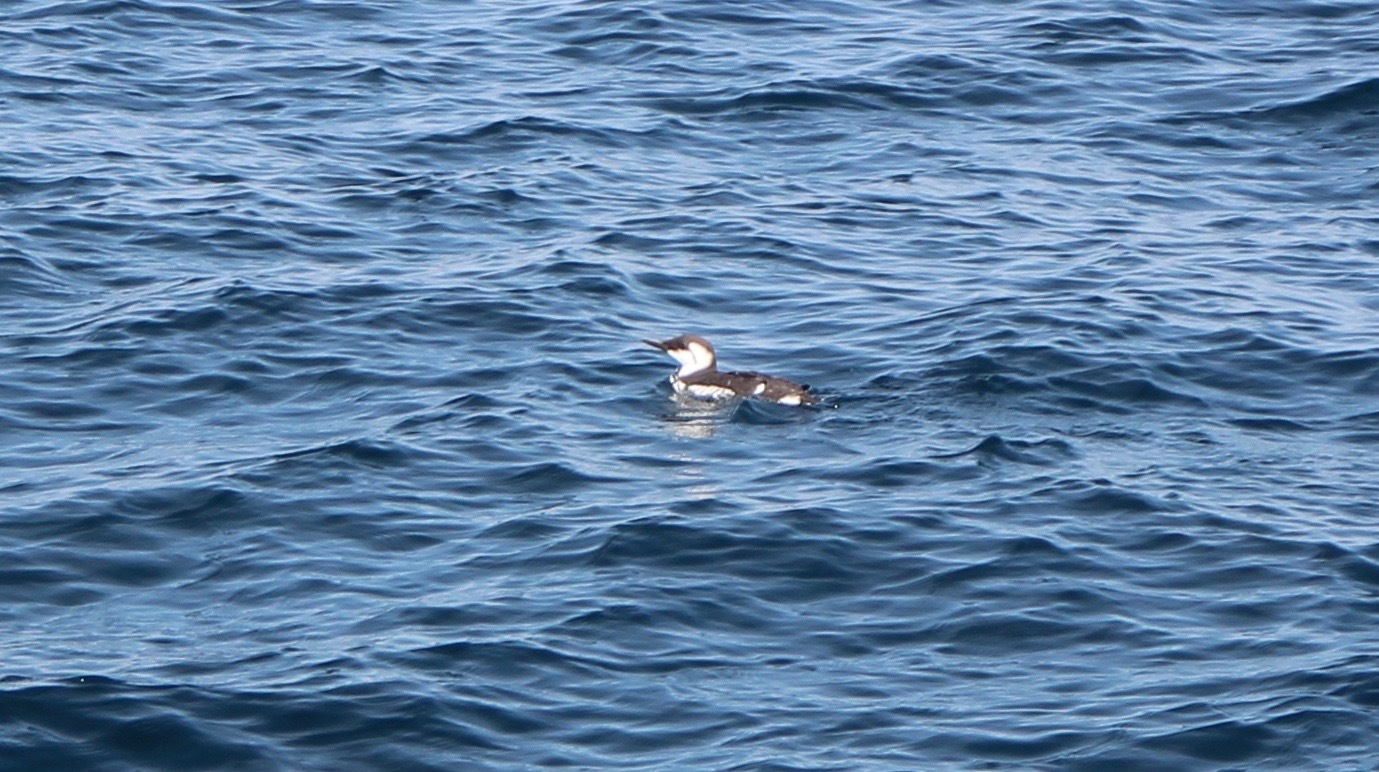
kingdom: Animalia
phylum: Chordata
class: Aves
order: Charadriiformes
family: Alcidae
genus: Uria
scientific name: Uria aalge
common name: Common murre
